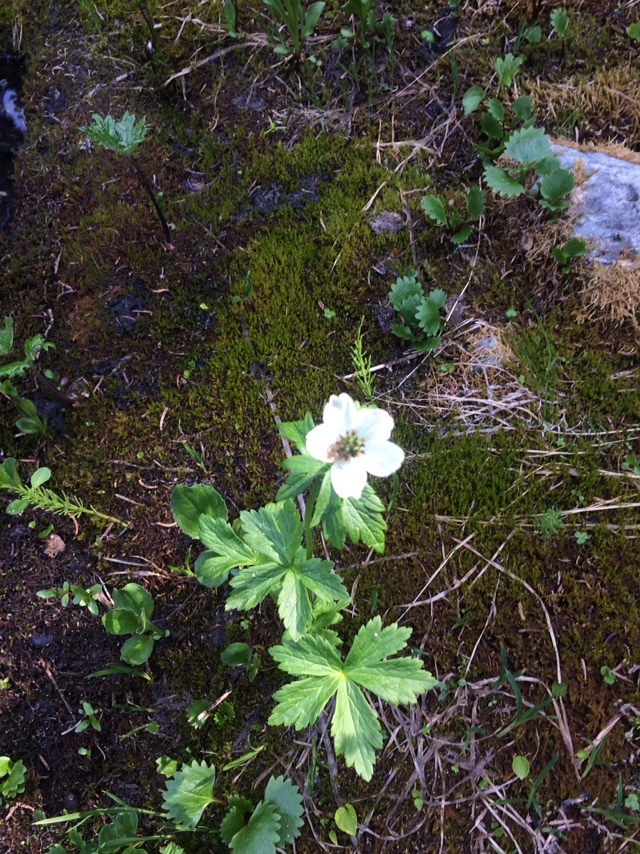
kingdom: Plantae
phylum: Tracheophyta
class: Magnoliopsida
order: Ranunculales
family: Ranunculaceae
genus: Trollius
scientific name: Trollius laxus
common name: American globeflower
